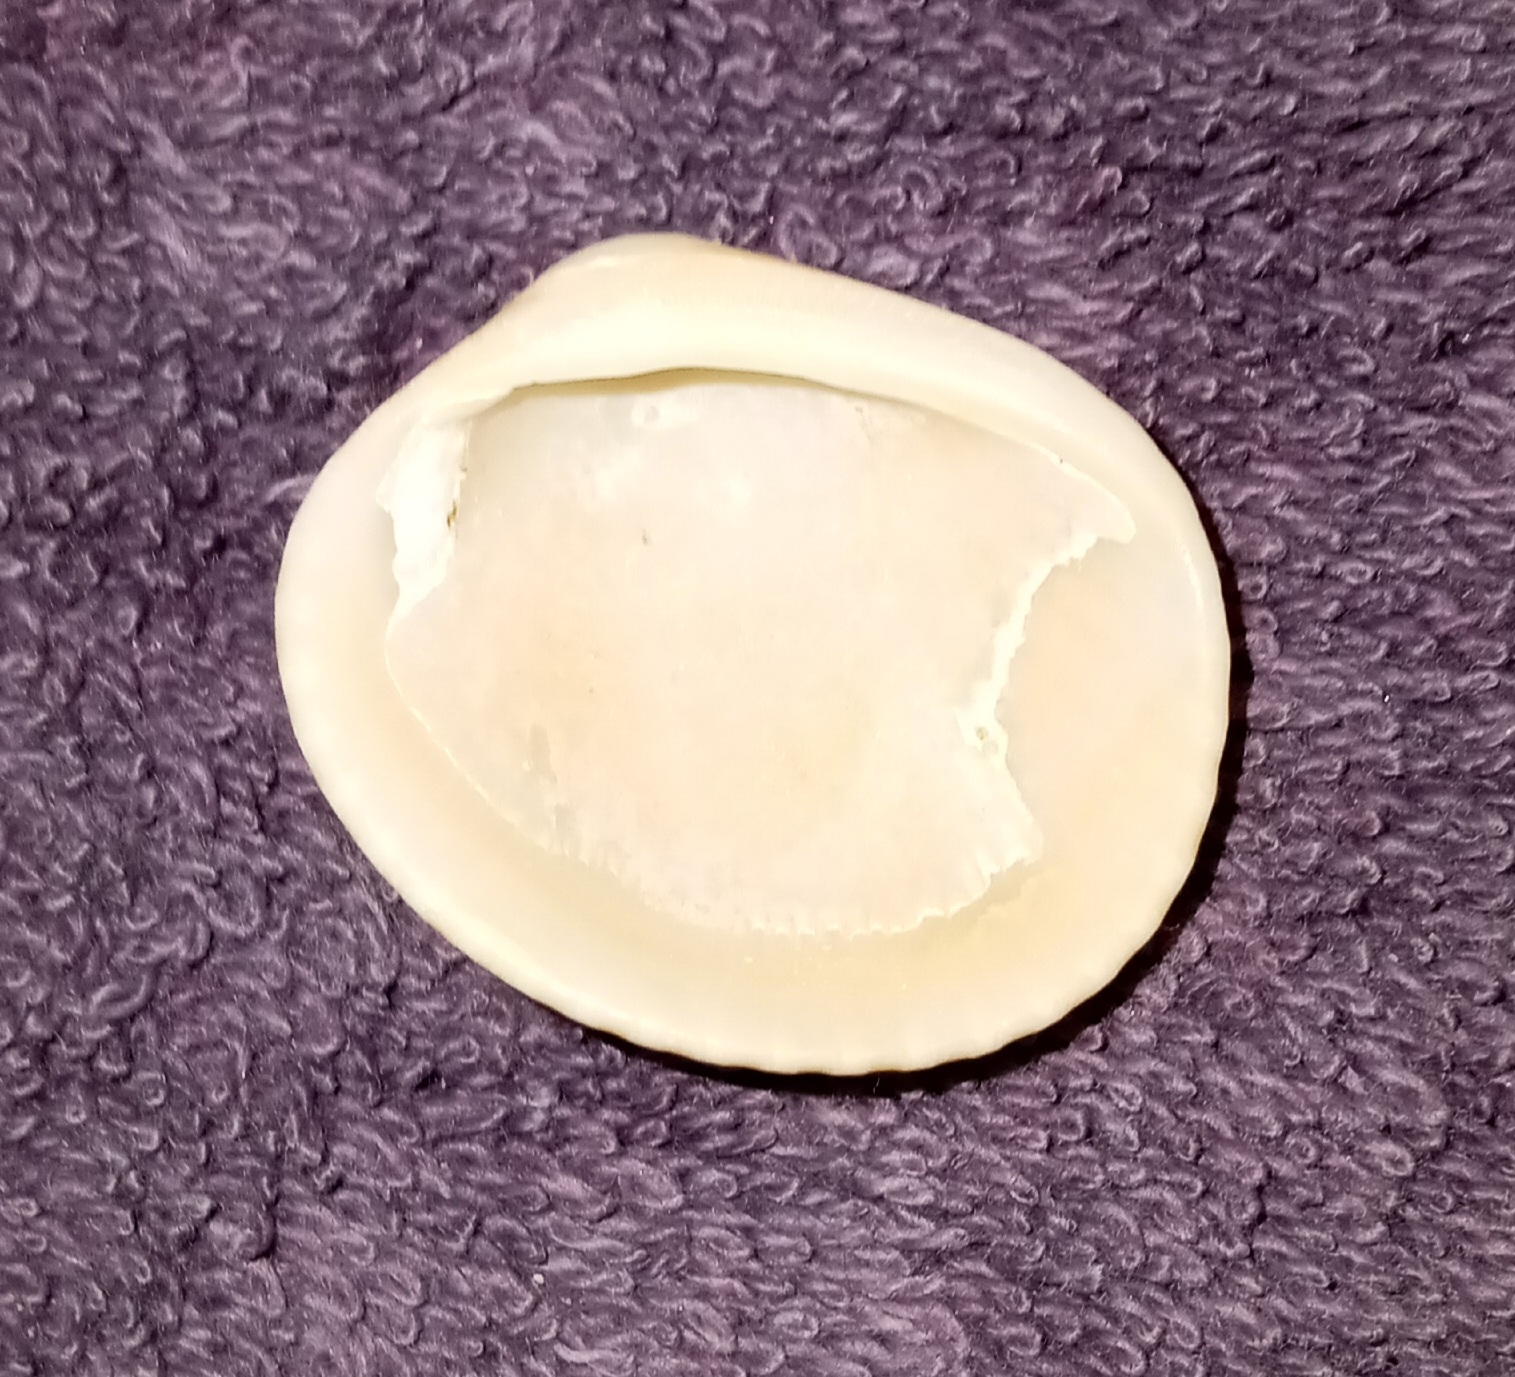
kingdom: Animalia
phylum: Mollusca
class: Bivalvia
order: Arcida
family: Arcidae
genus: Lunarca
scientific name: Lunarca ovalis
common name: Blood ark
